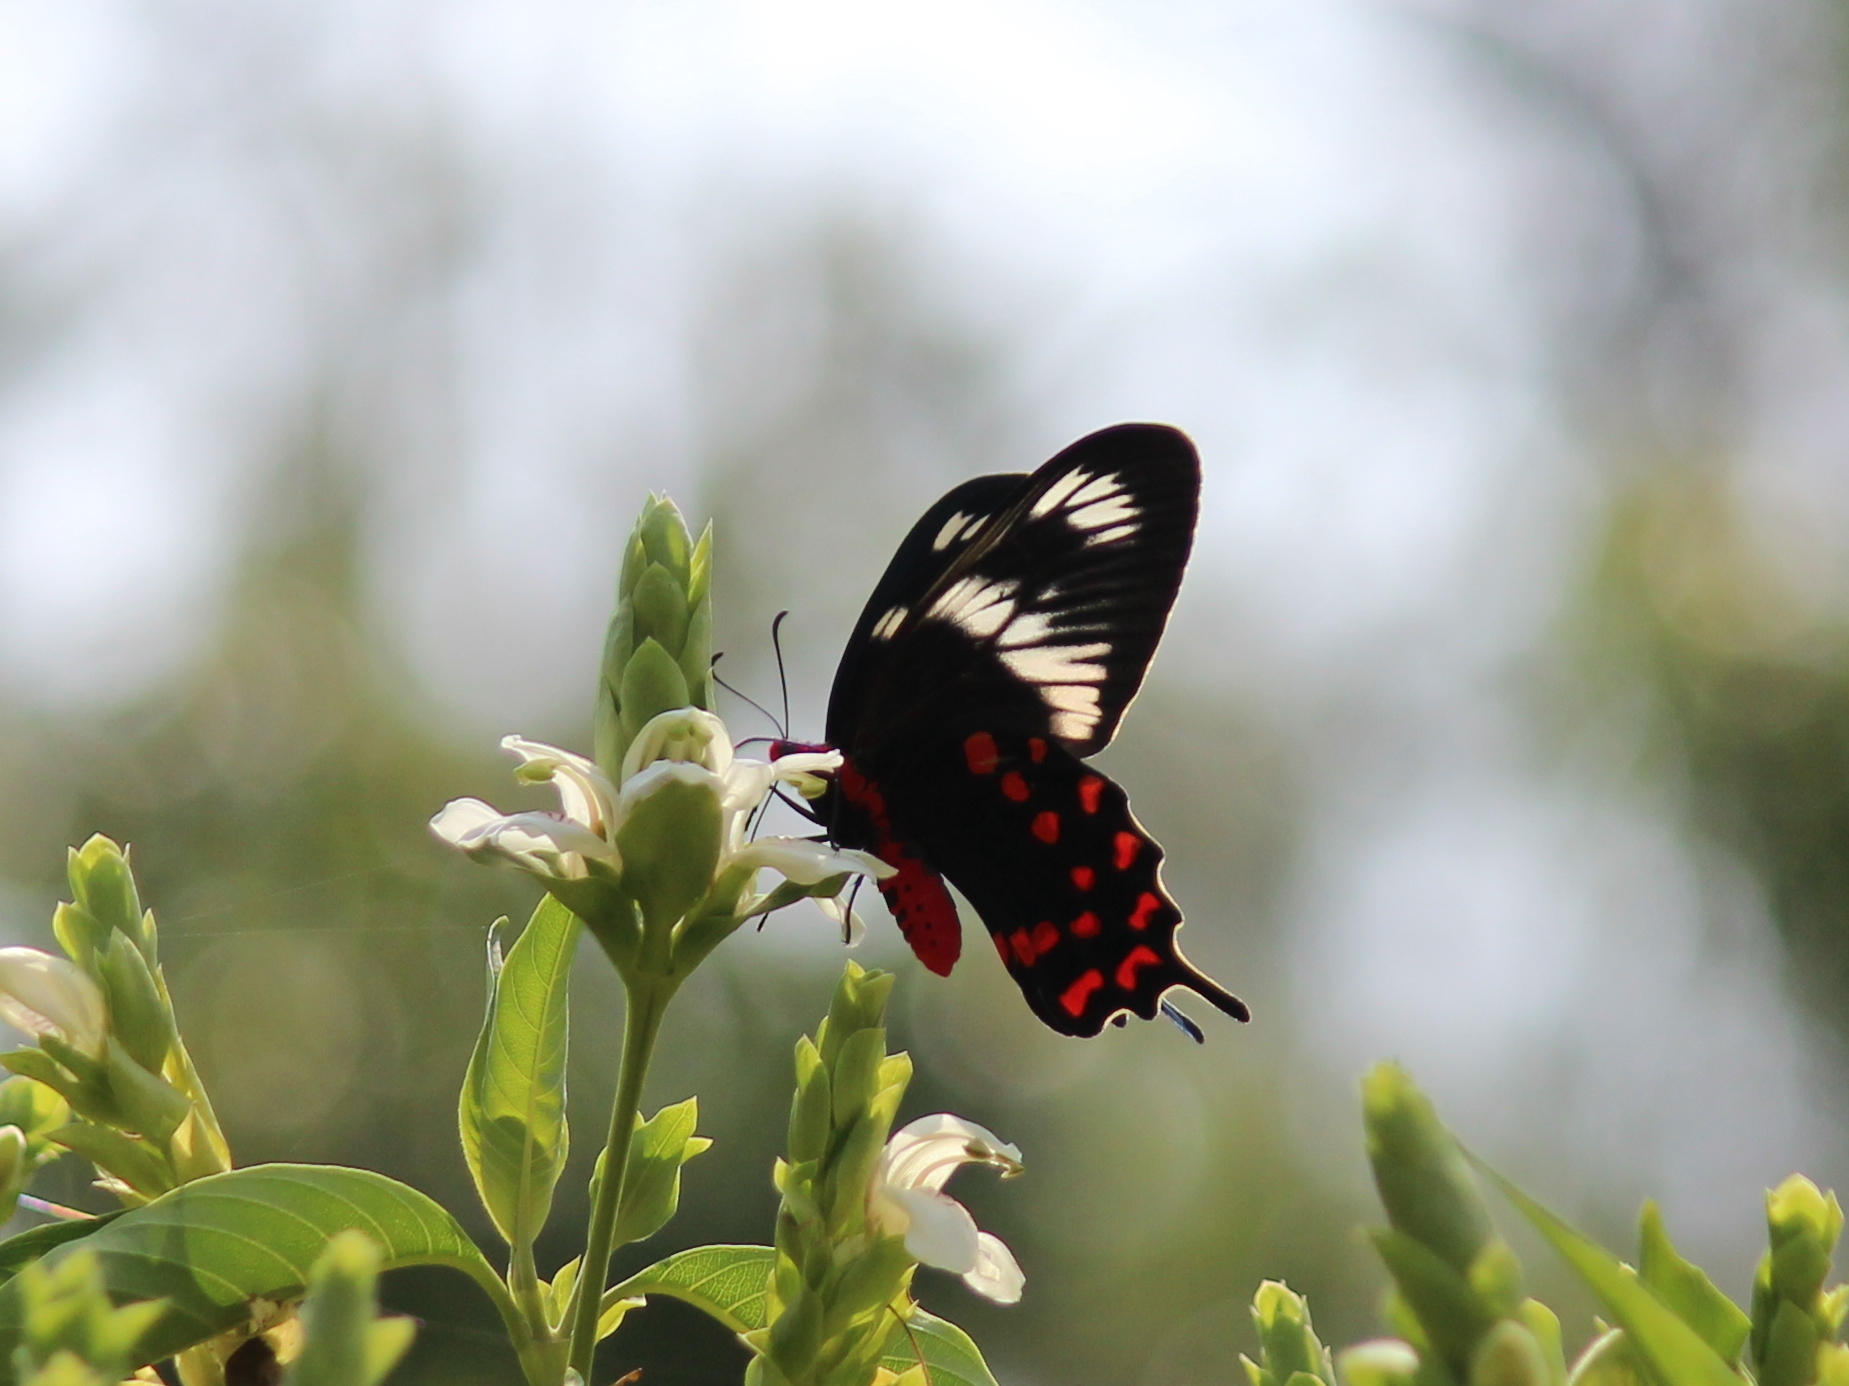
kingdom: Animalia
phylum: Arthropoda
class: Insecta
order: Lepidoptera
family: Papilionidae
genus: Pachliopta
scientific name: Pachliopta hector
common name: Crimson rose
